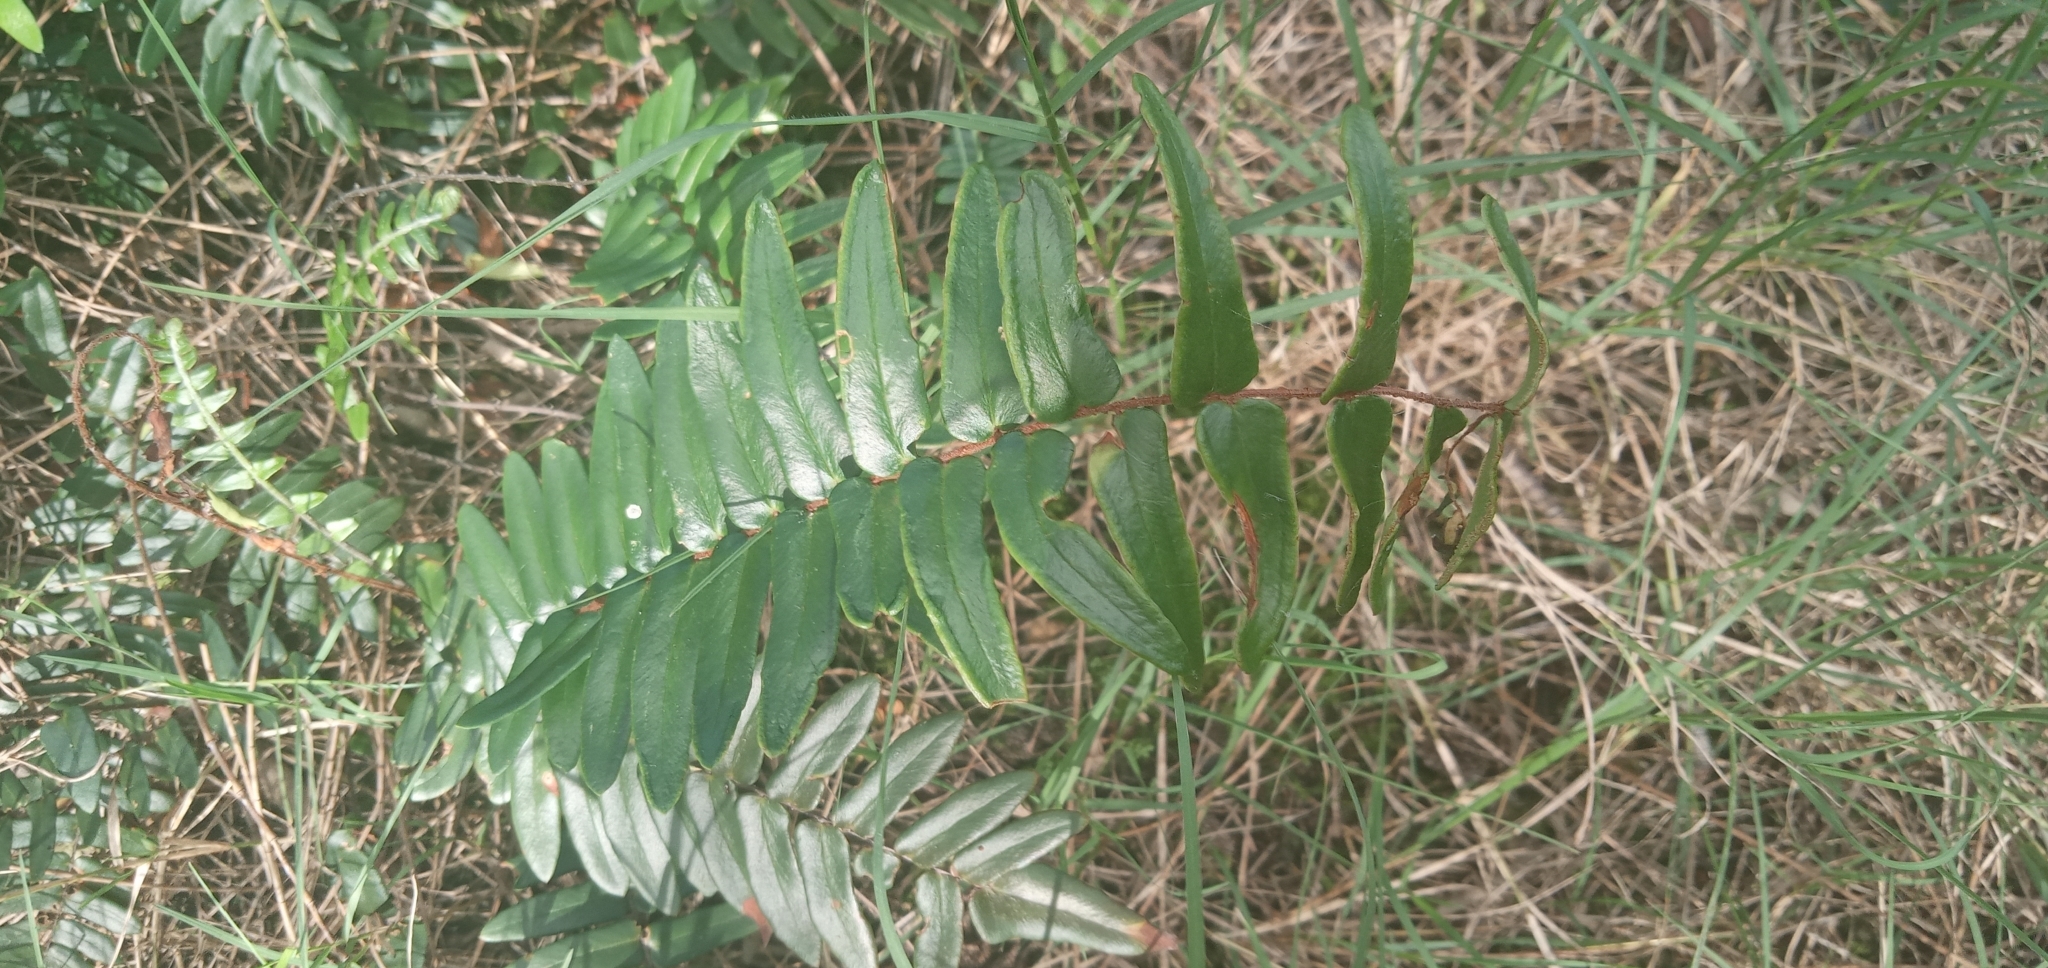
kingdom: Plantae
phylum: Tracheophyta
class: Polypodiopsida
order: Polypodiales
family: Pteridaceae
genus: Pellaea
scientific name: Pellaea falcata
